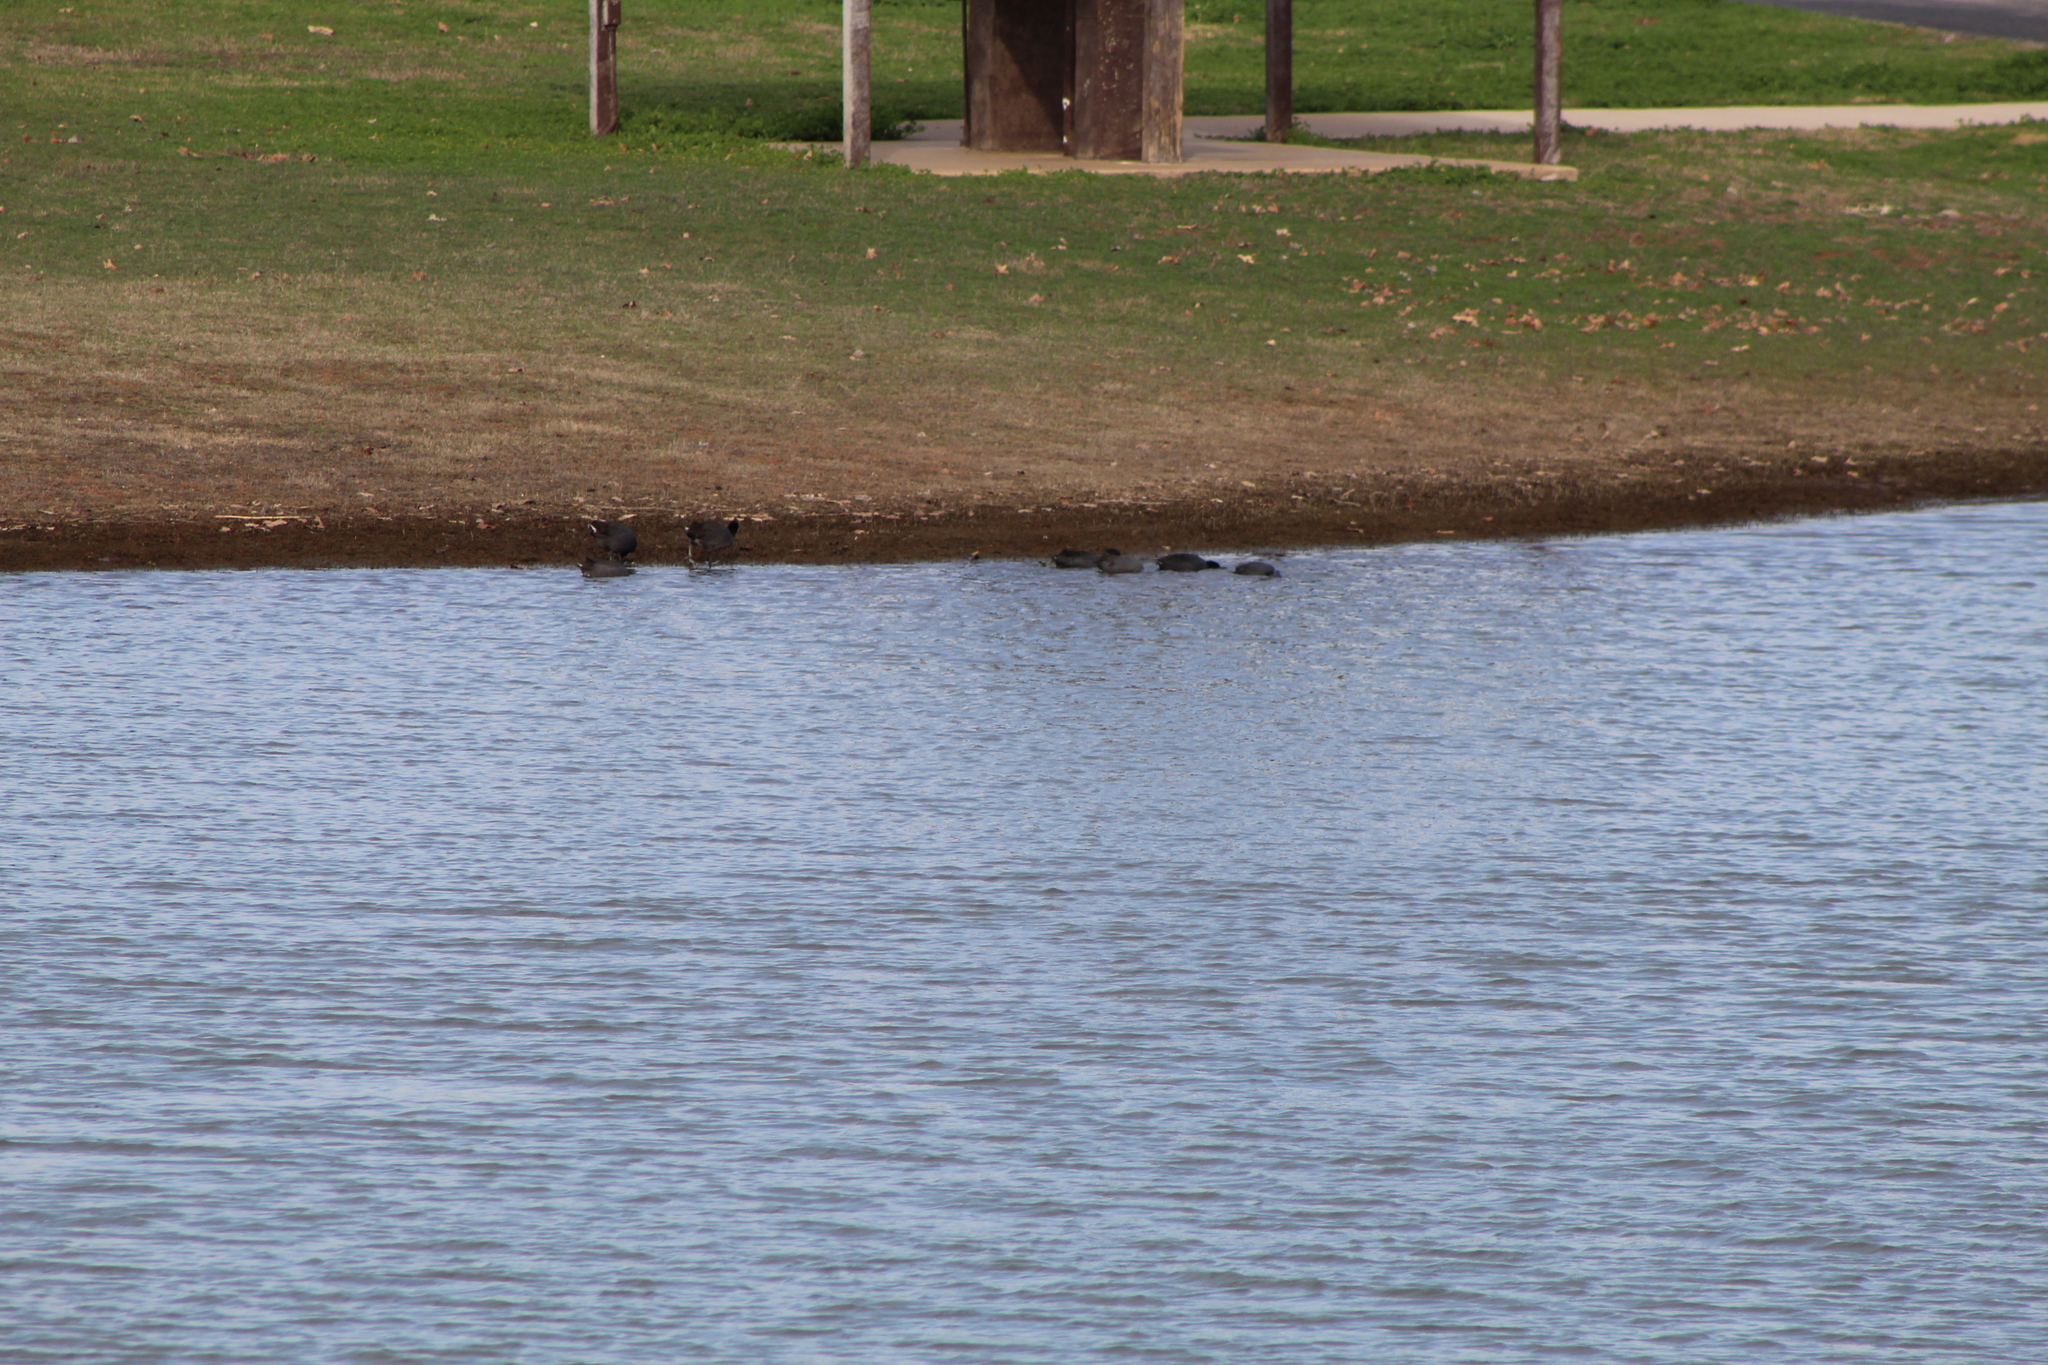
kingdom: Animalia
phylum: Chordata
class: Aves
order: Gruiformes
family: Rallidae
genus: Fulica
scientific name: Fulica americana
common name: American coot
